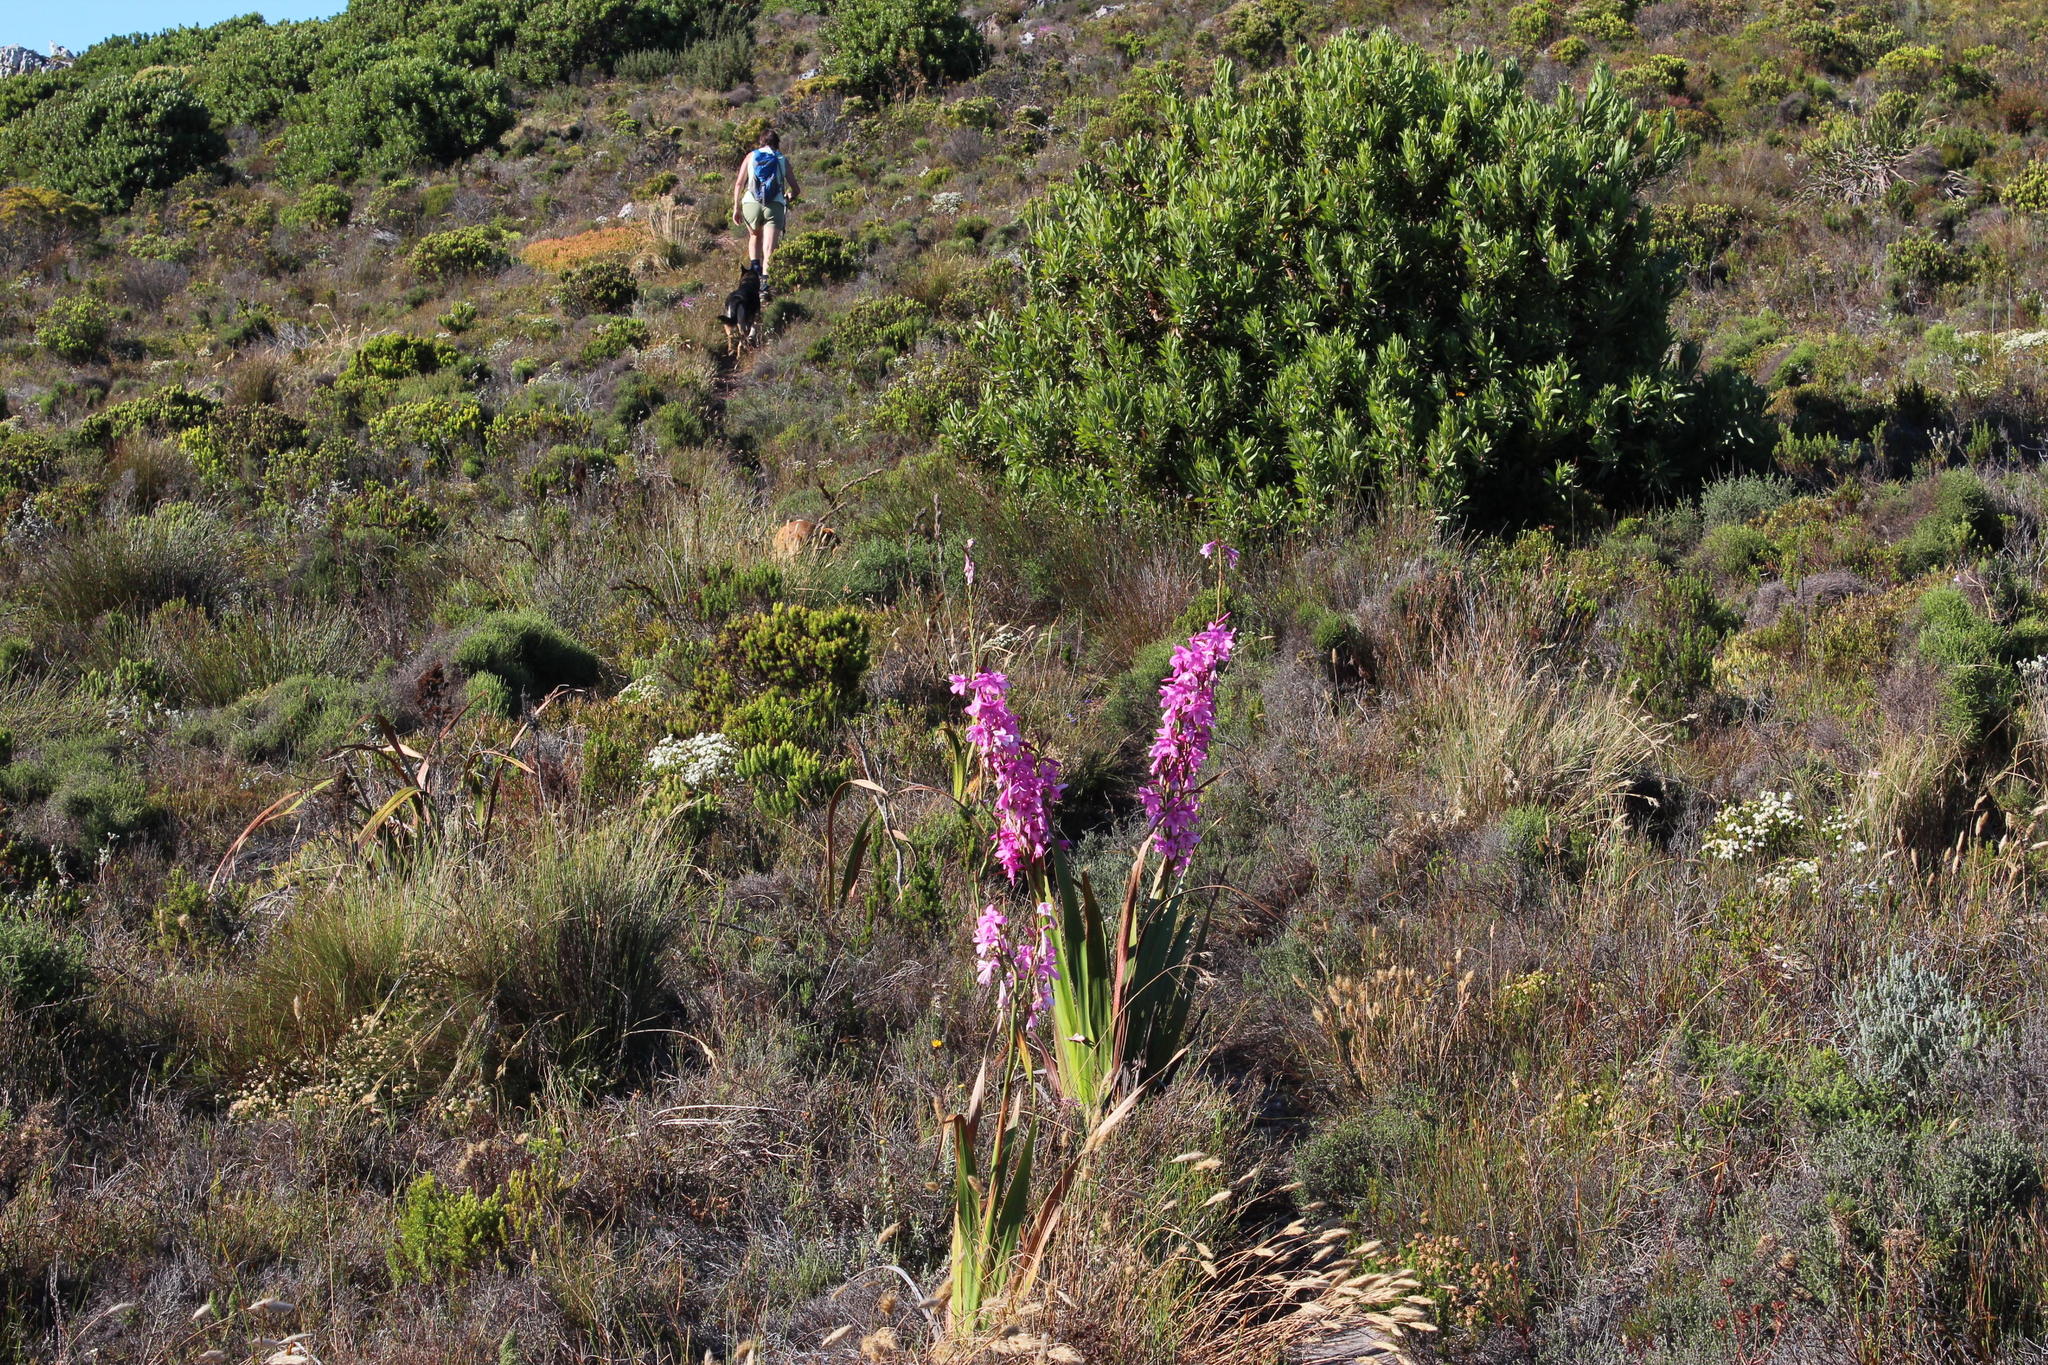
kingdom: Plantae
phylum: Tracheophyta
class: Liliopsida
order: Asparagales
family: Iridaceae
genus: Watsonia
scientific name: Watsonia borbonica
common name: Bugle-lily
